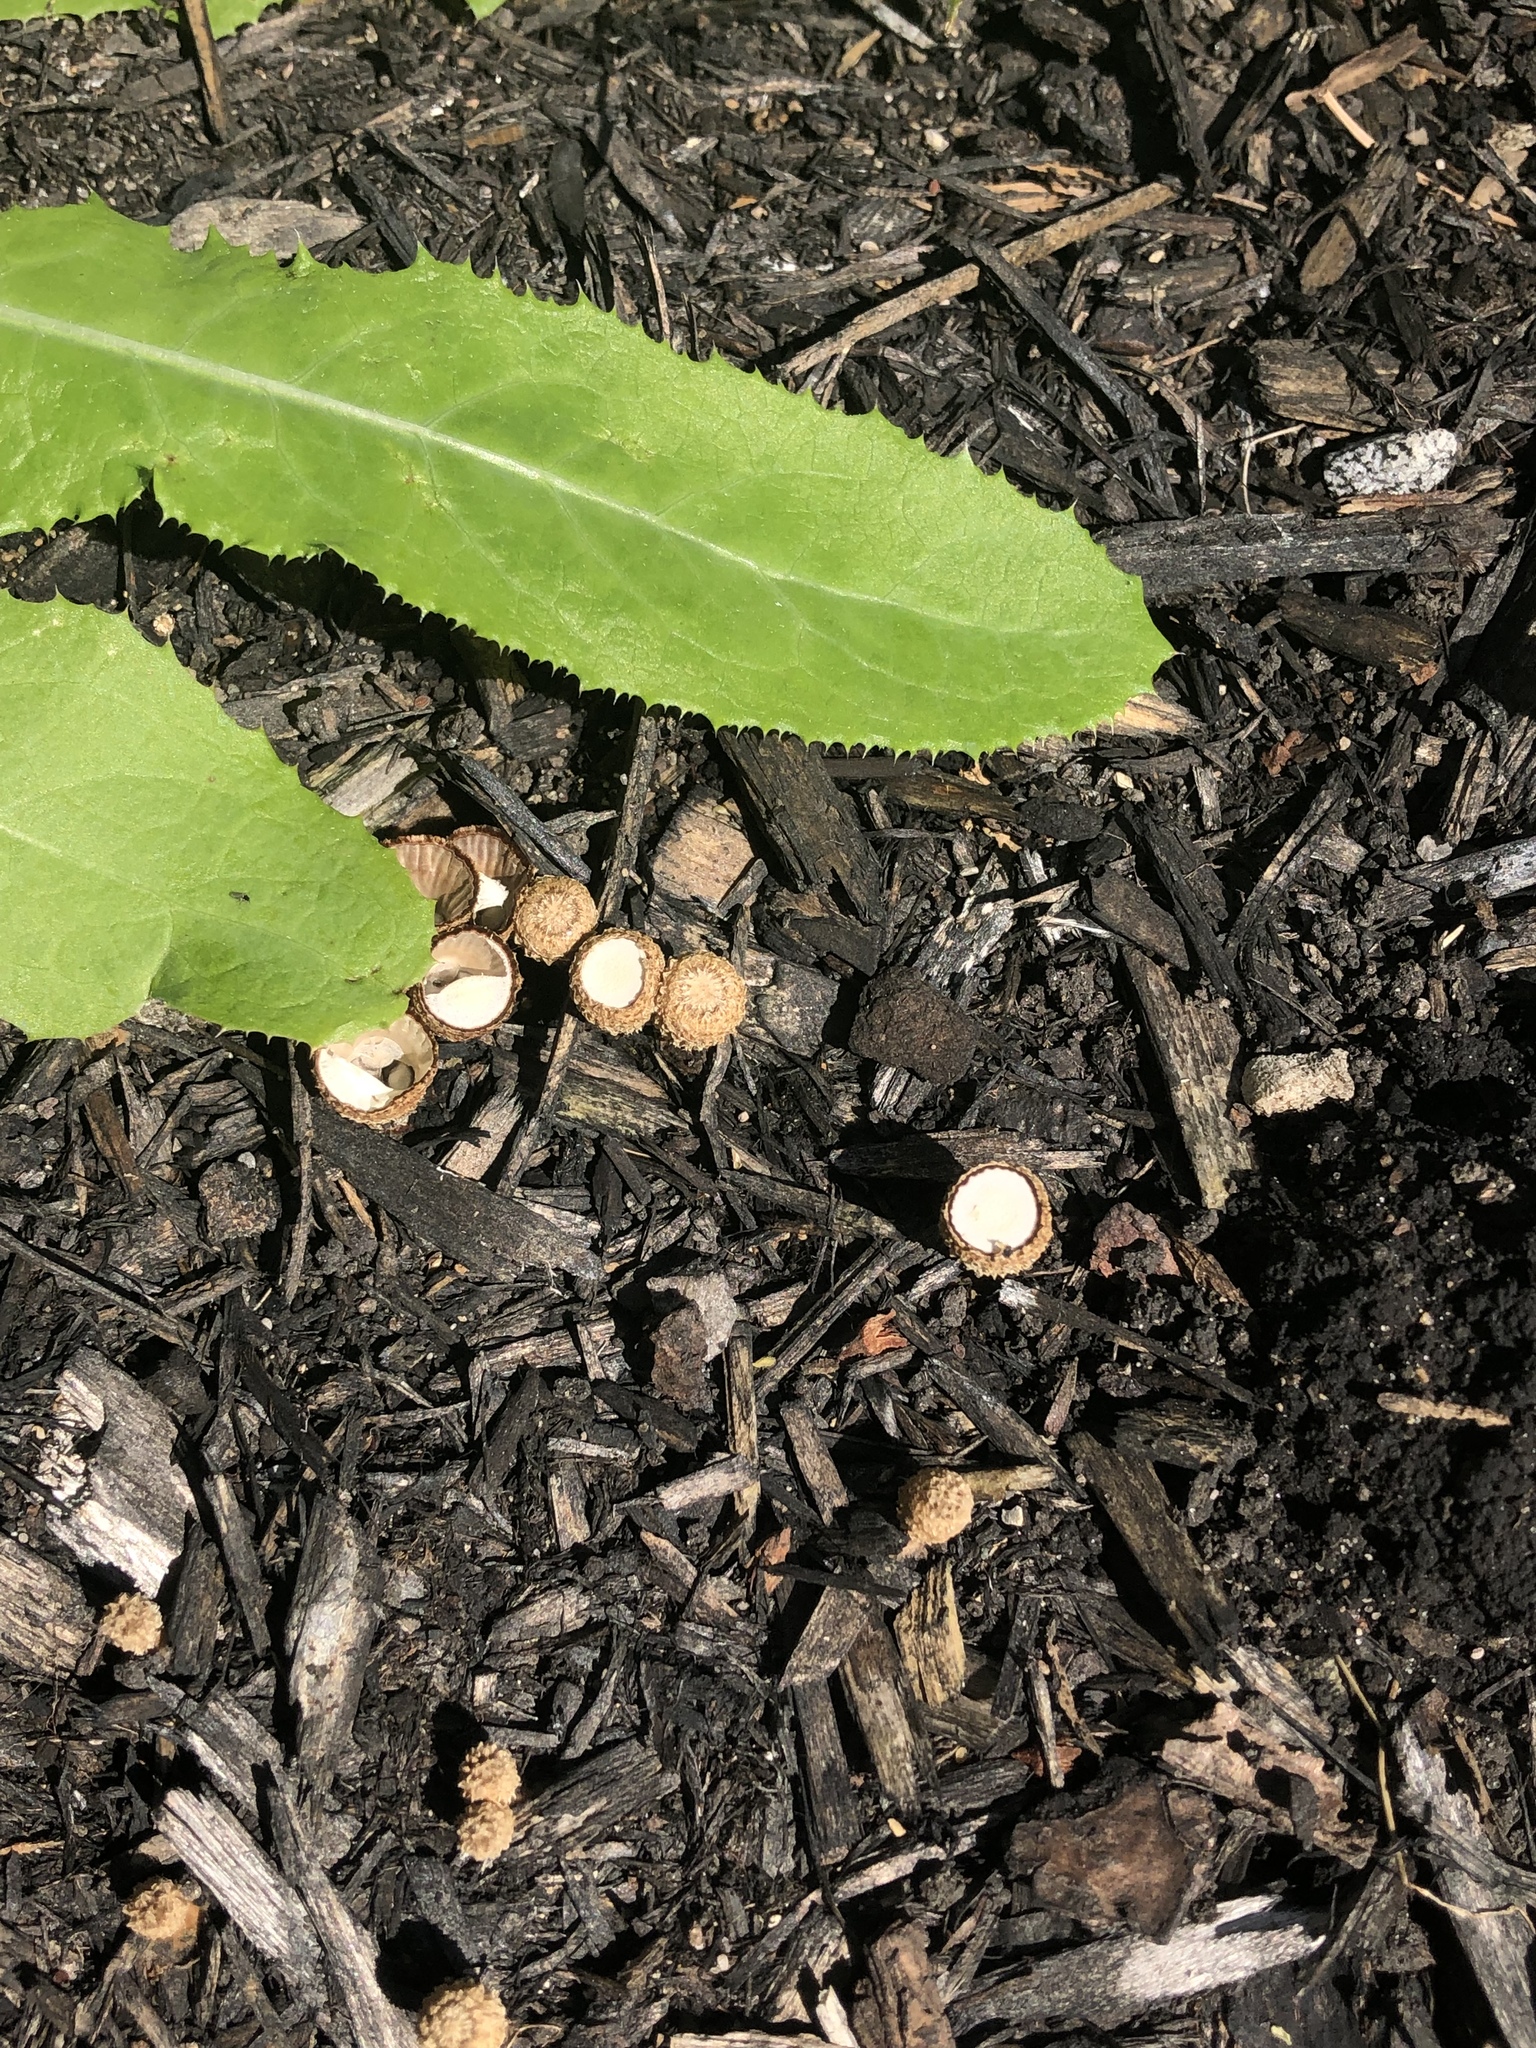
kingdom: Fungi
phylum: Basidiomycota
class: Agaricomycetes
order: Agaricales
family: Agaricaceae
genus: Cyathus
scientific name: Cyathus striatus
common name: Fluted bird's nest
